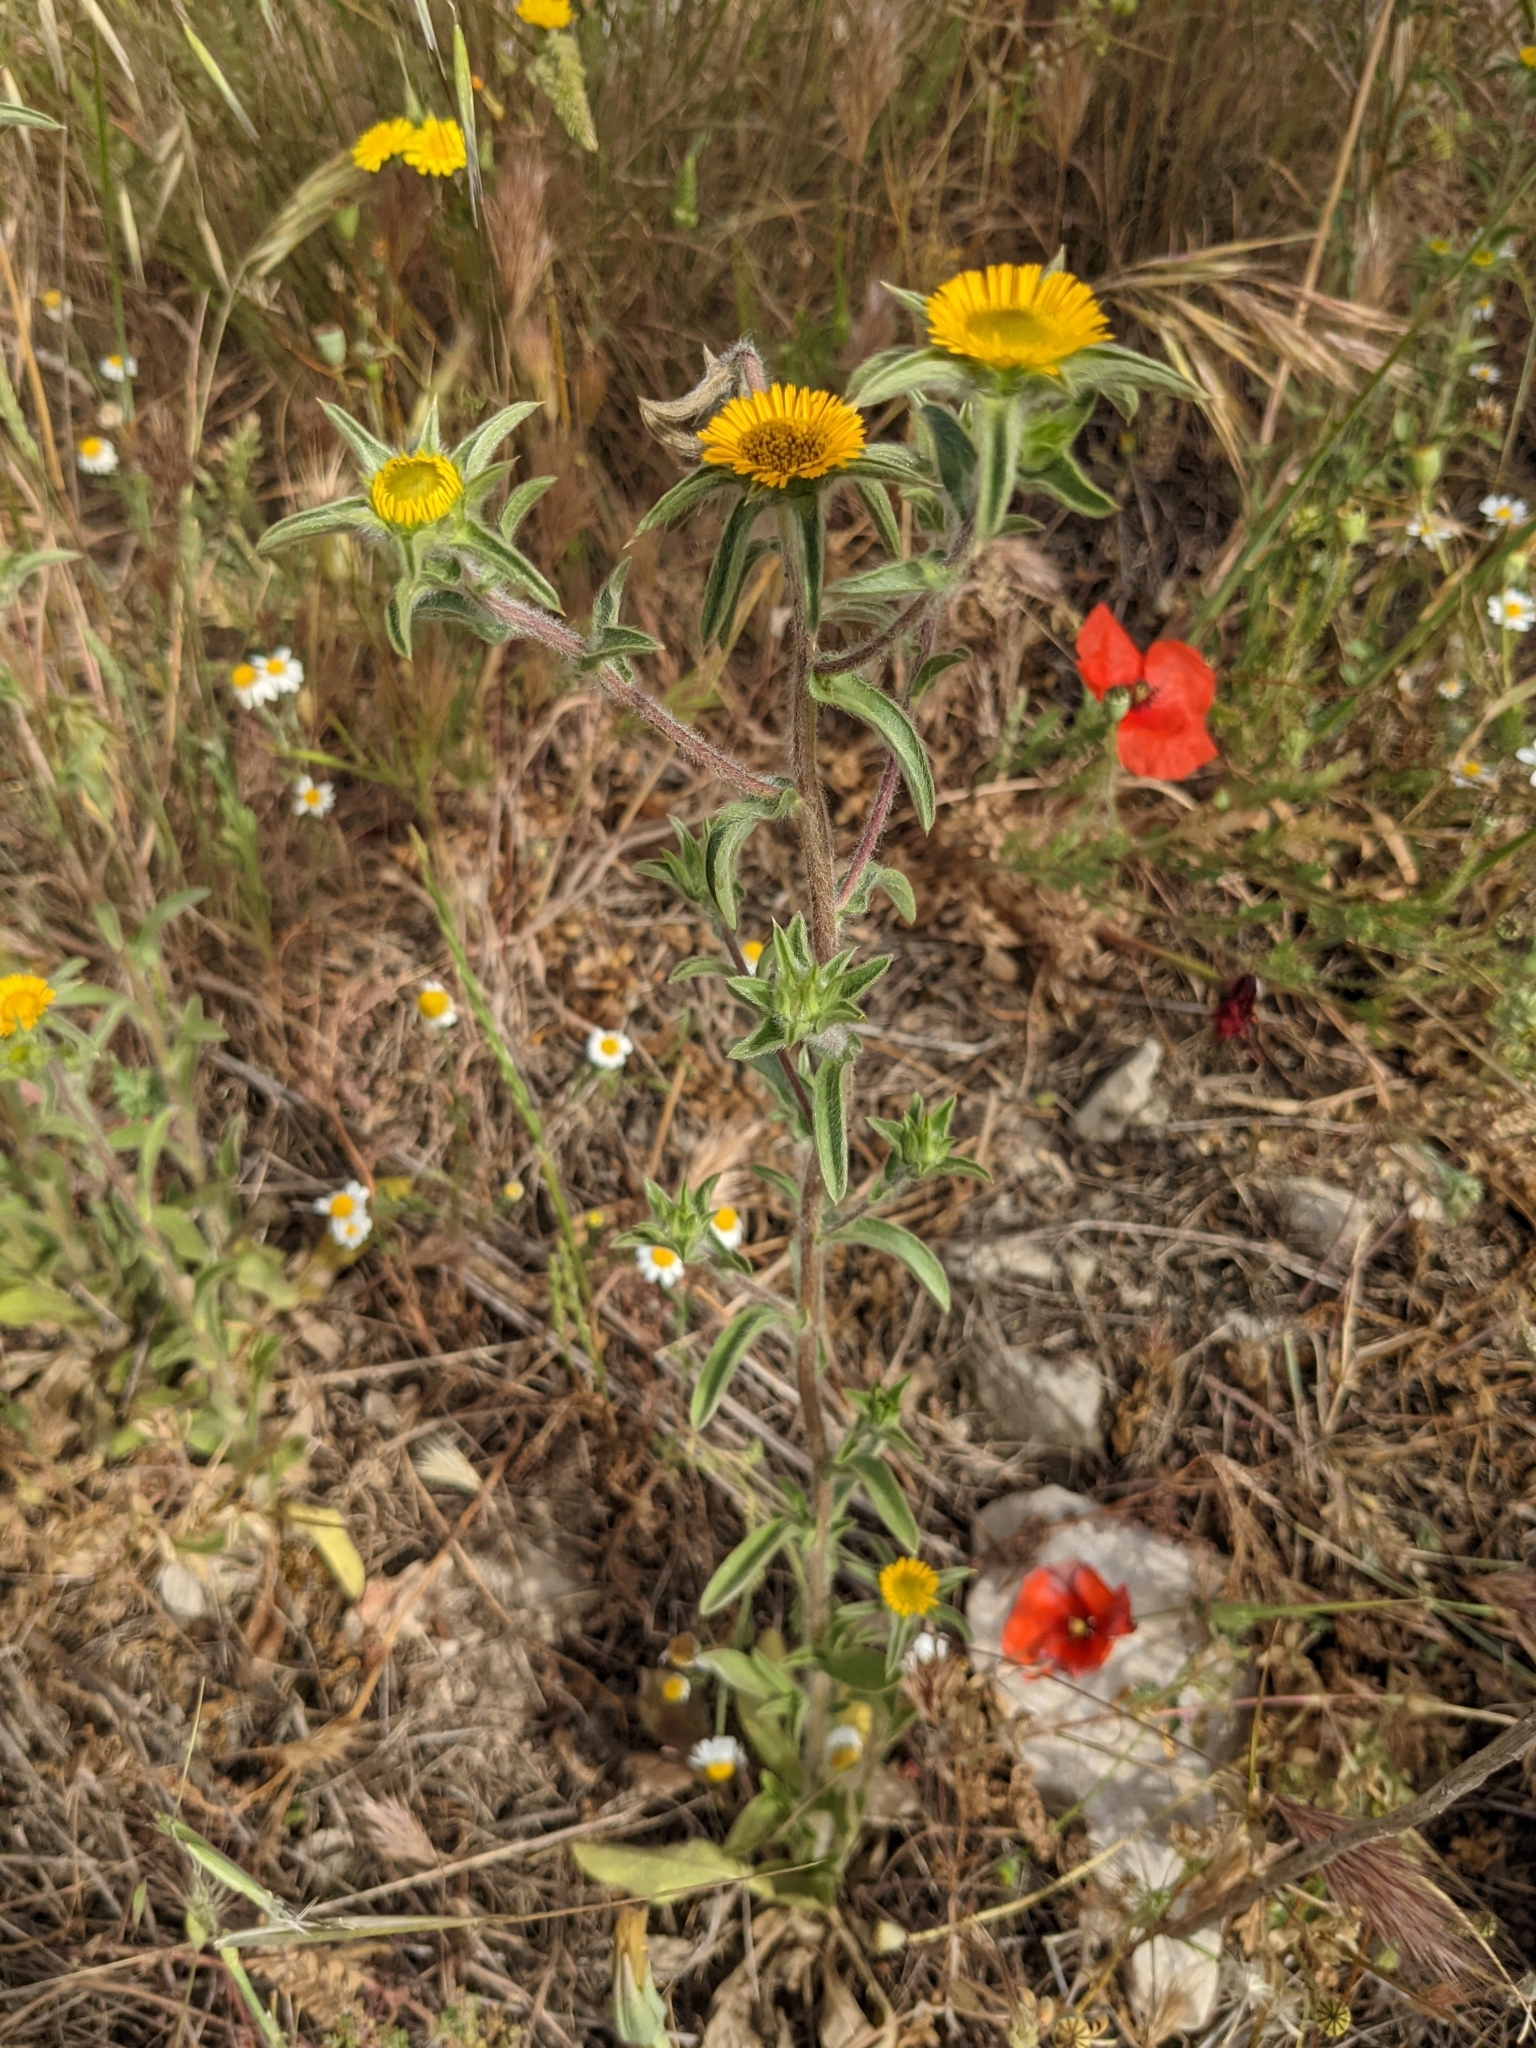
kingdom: Plantae
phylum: Tracheophyta
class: Magnoliopsida
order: Asterales
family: Asteraceae
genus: Pallenis
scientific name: Pallenis spinosa
